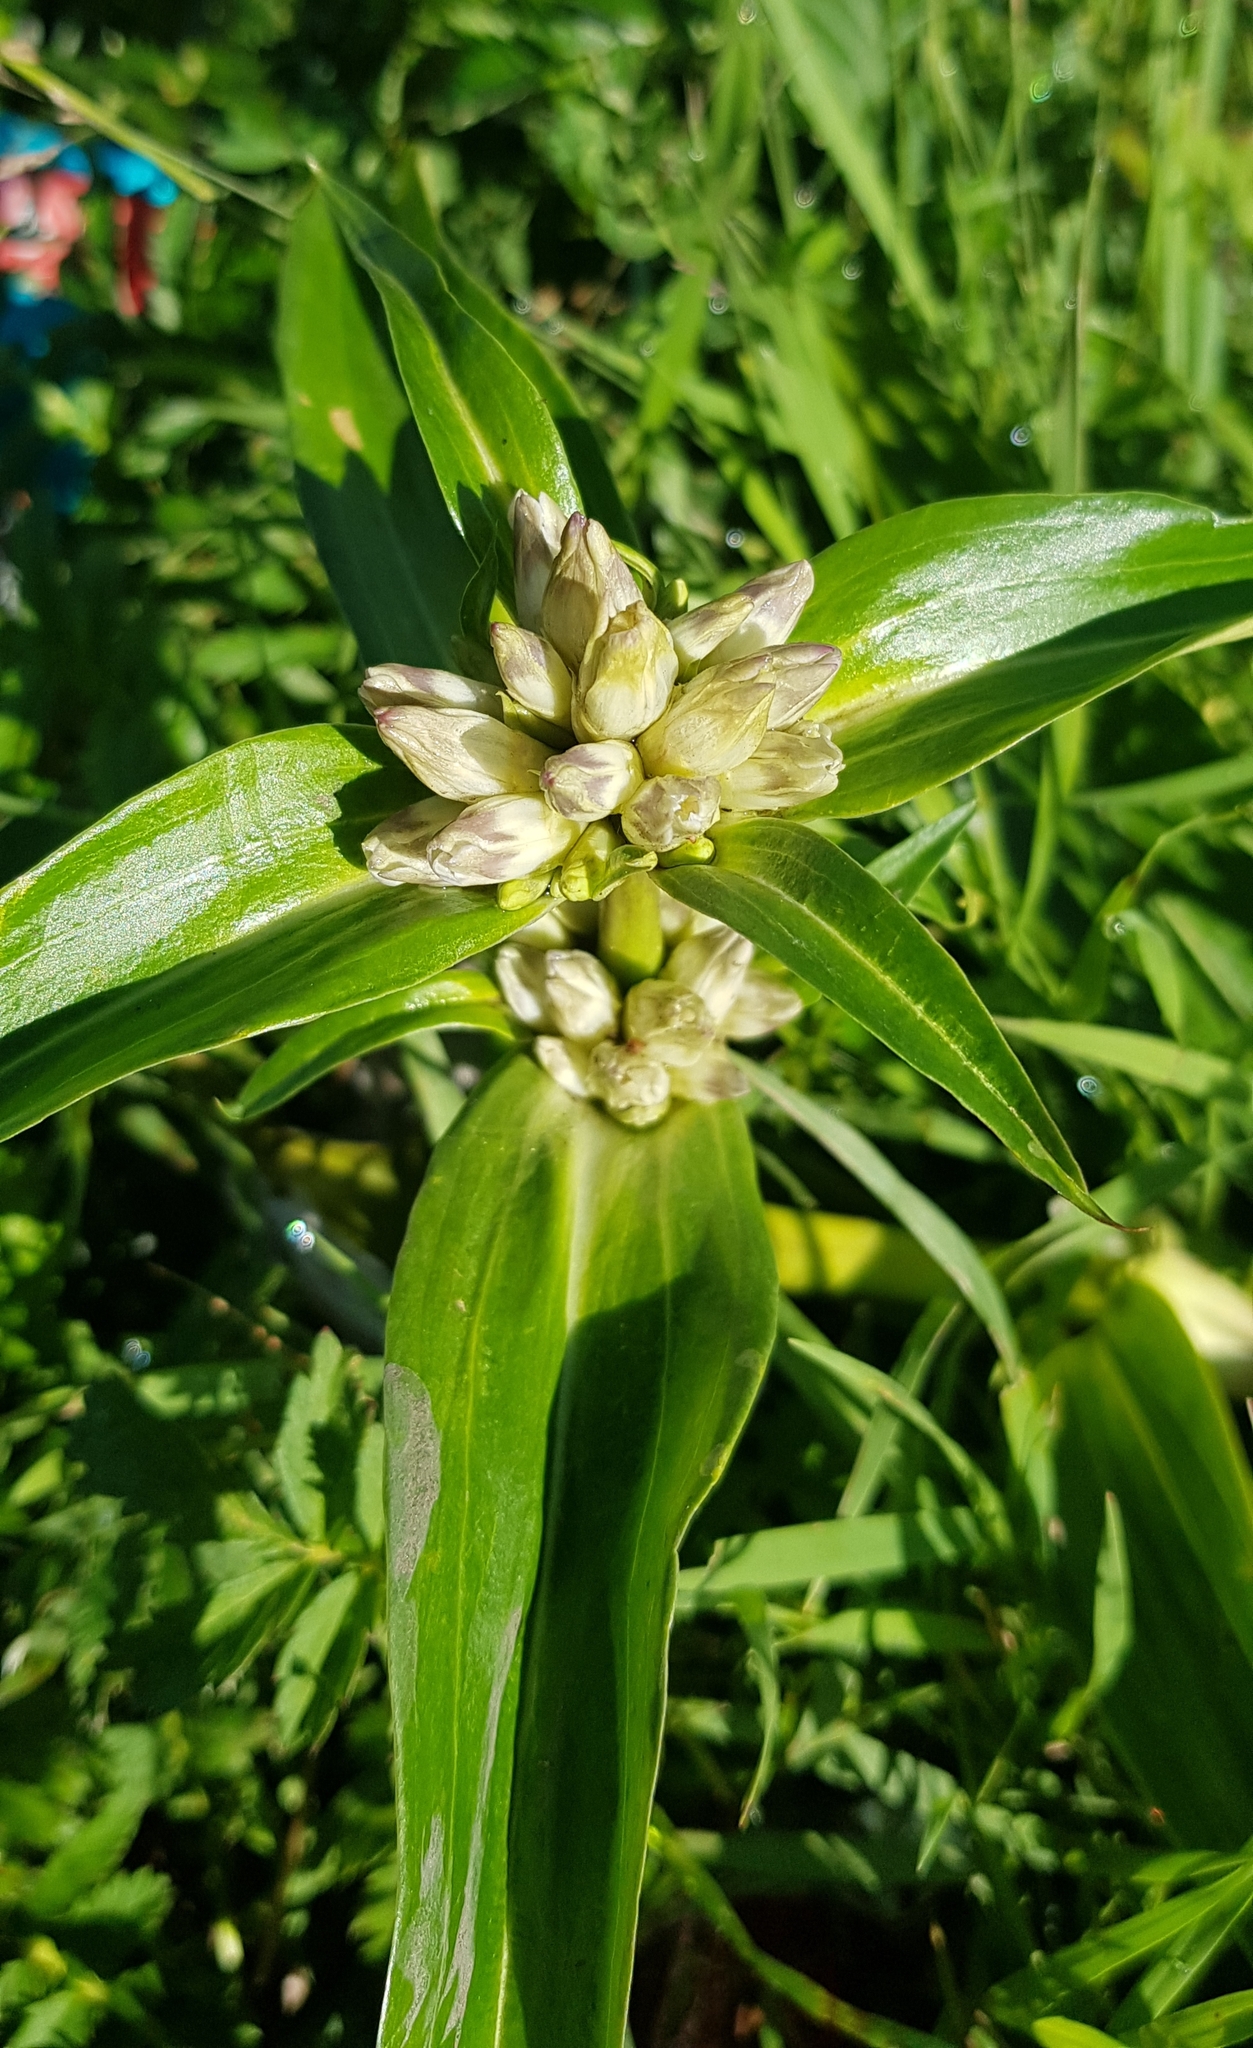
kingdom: Plantae
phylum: Tracheophyta
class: Magnoliopsida
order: Gentianales
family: Gentianaceae
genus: Gentiana
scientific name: Gentiana macrophylla
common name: Large-leaf gentian
